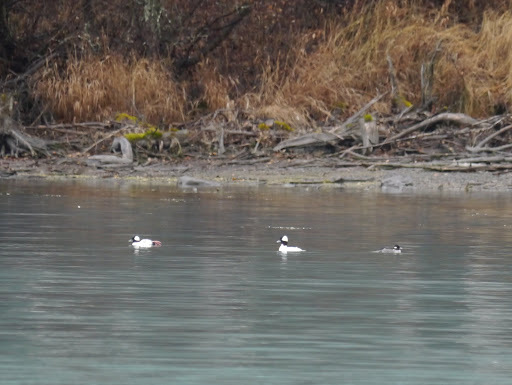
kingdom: Animalia
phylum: Chordata
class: Aves
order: Anseriformes
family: Anatidae
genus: Bucephala
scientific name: Bucephala albeola
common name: Bufflehead
